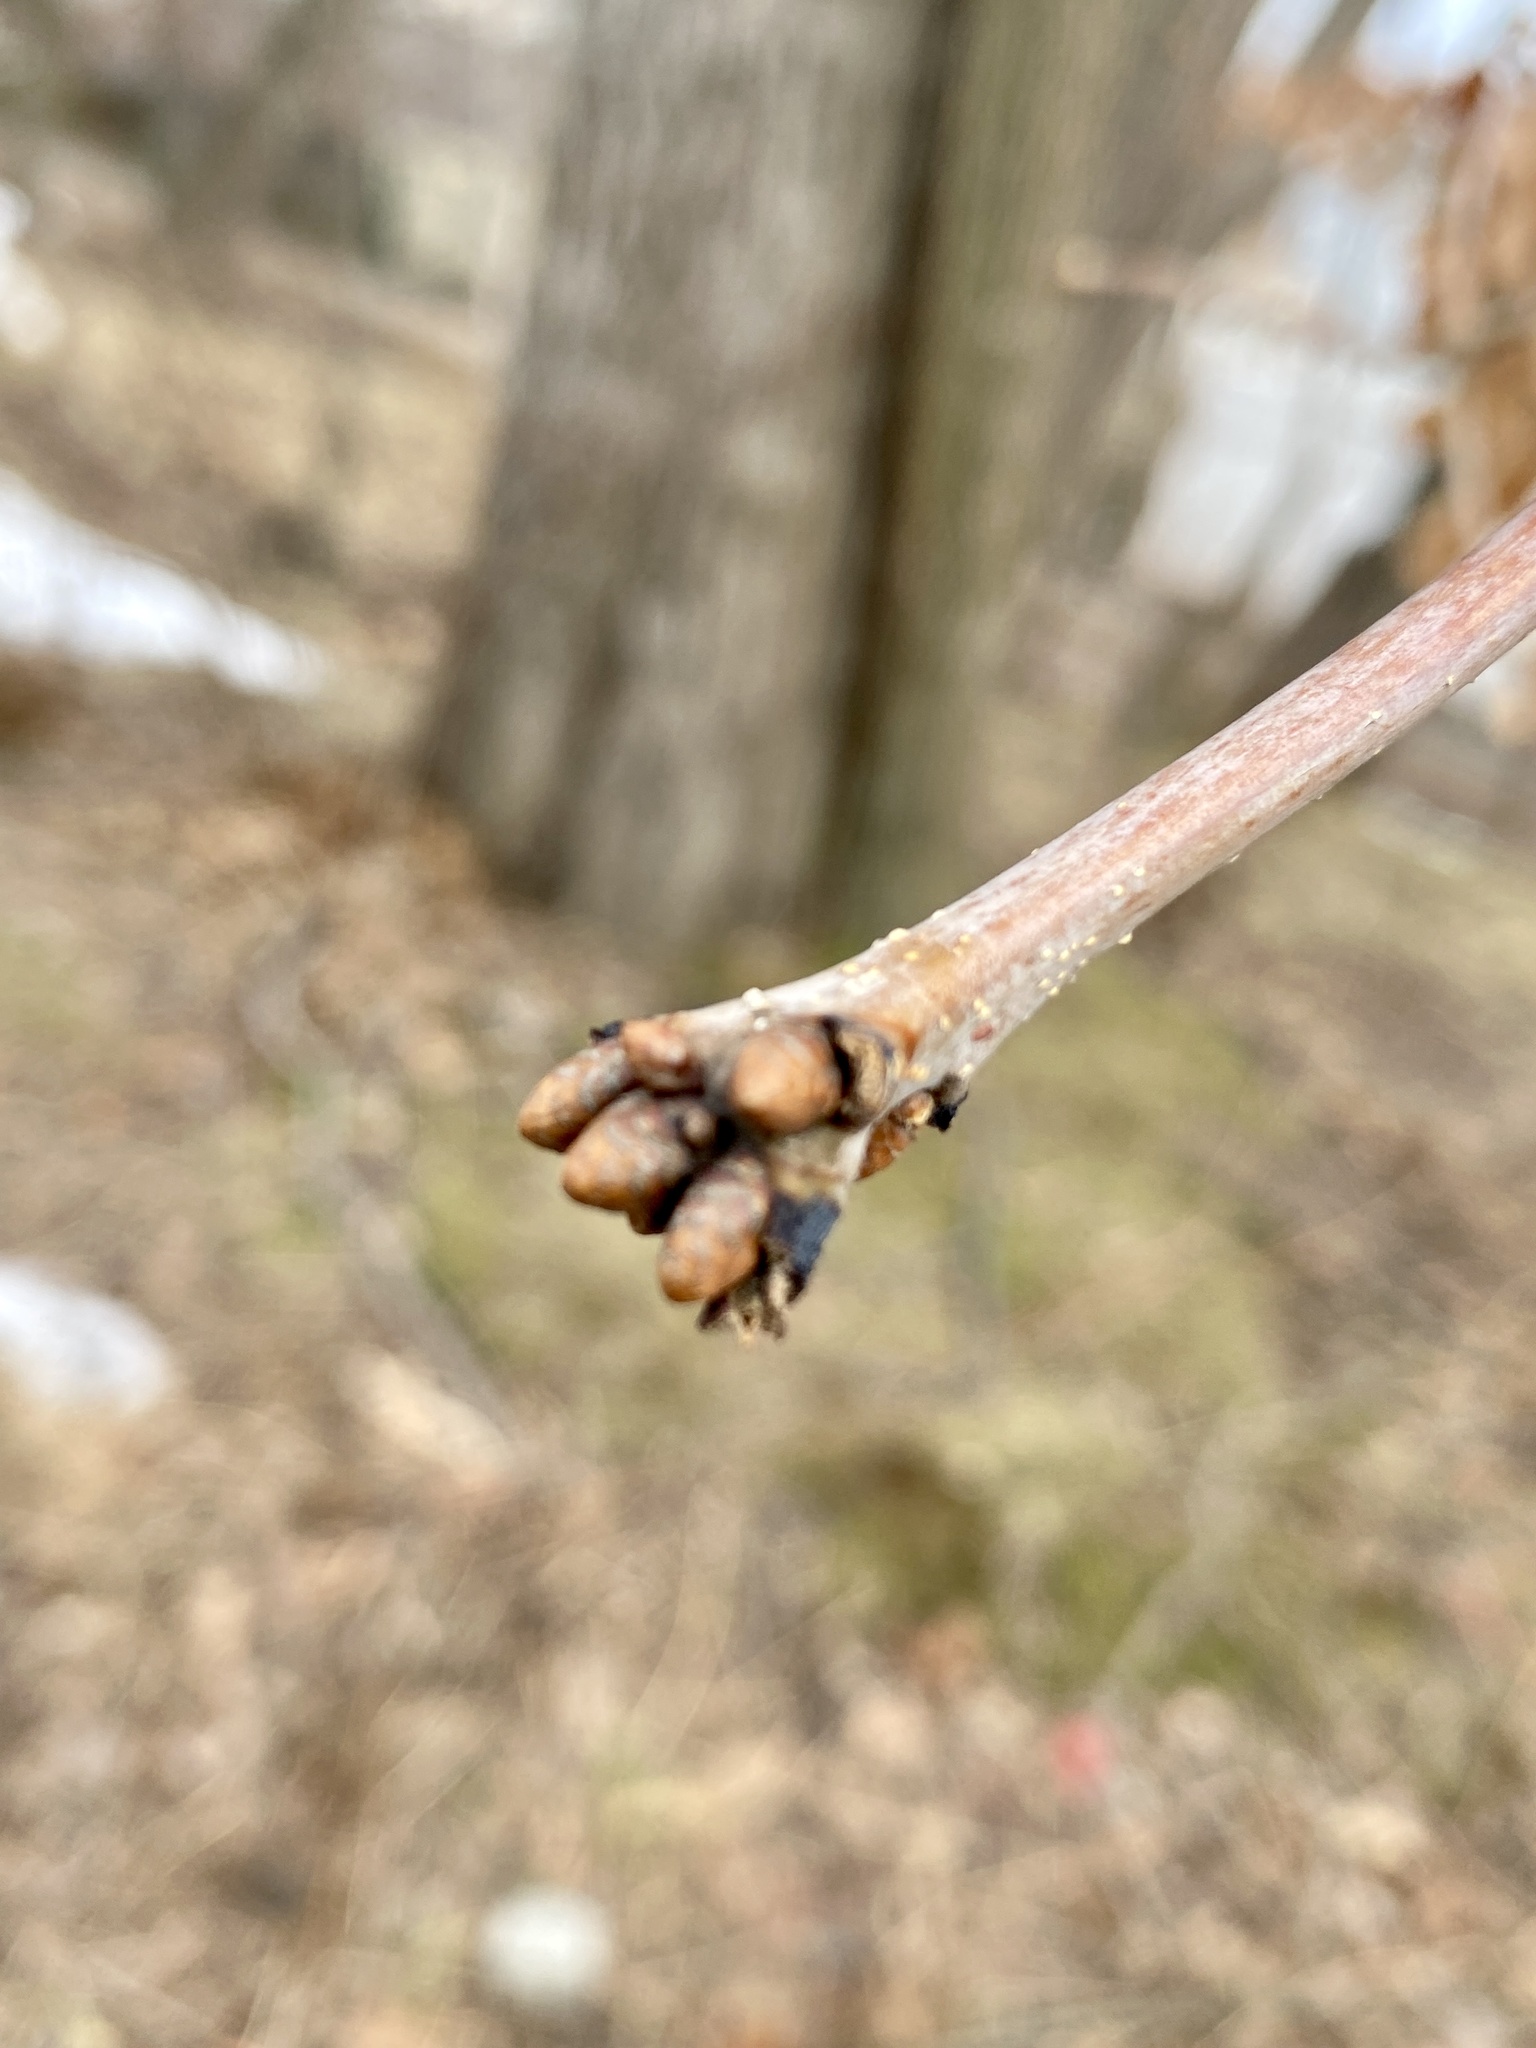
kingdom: Plantae
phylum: Tracheophyta
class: Magnoliopsida
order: Fagales
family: Fagaceae
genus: Quercus
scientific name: Quercus alba
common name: White oak
